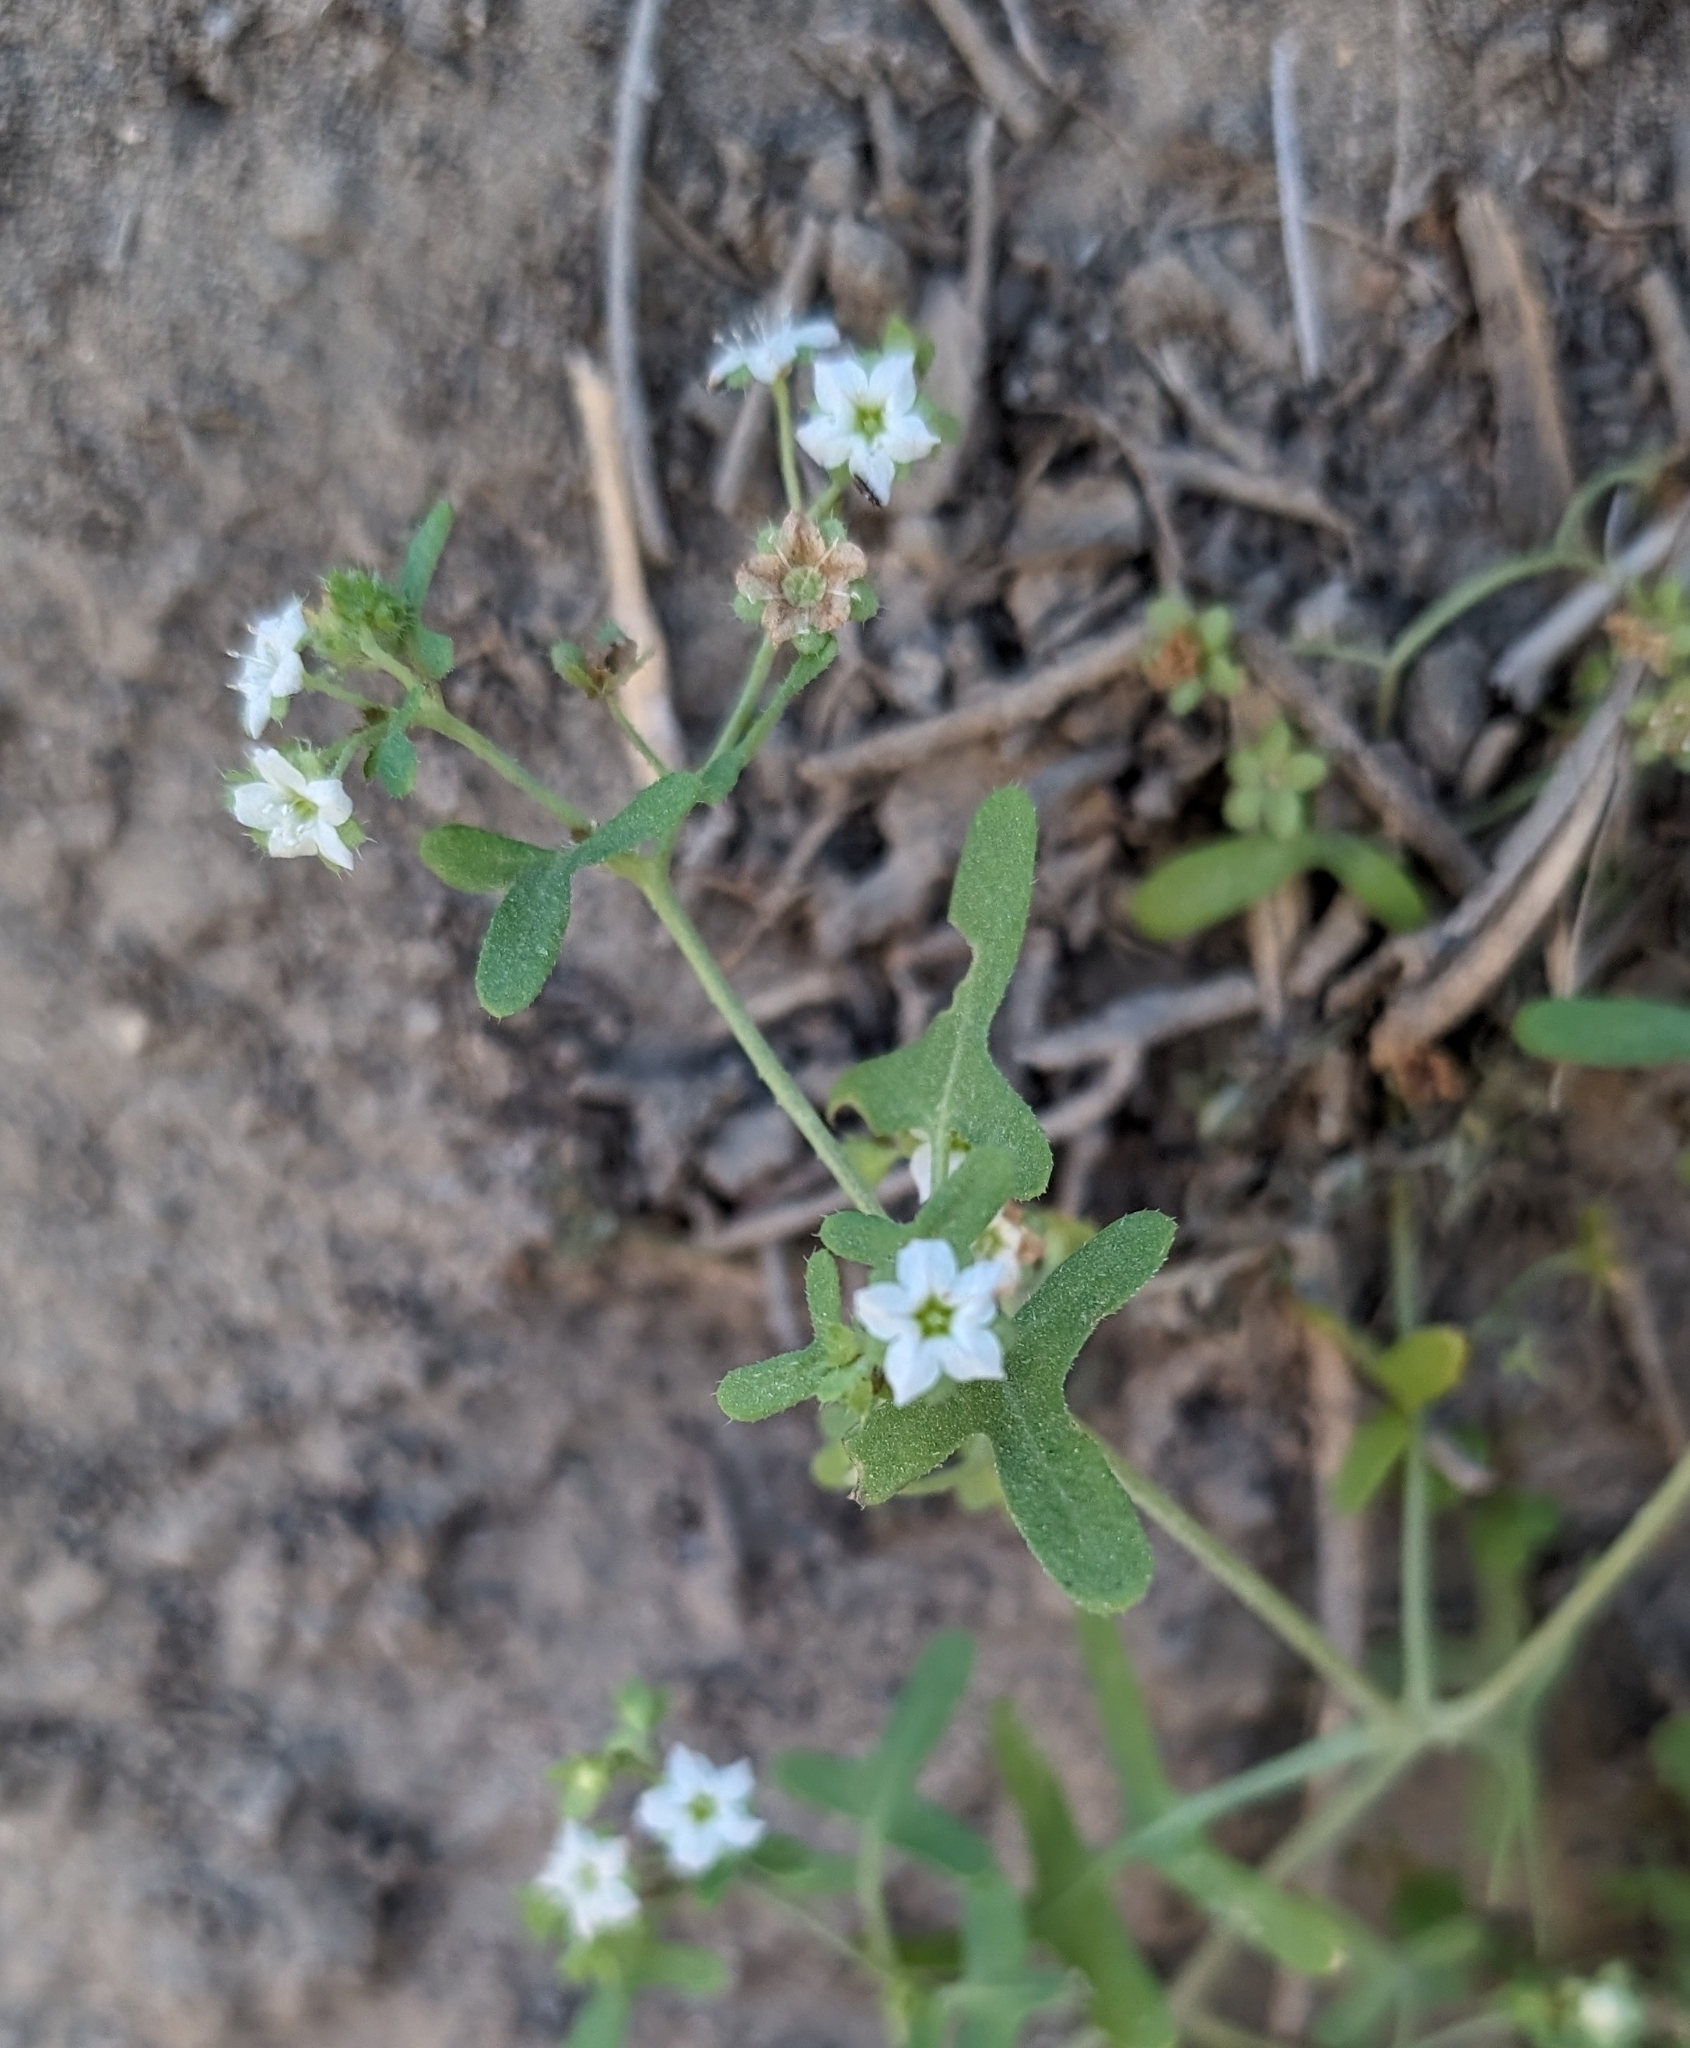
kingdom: Plantae
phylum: Tracheophyta
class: Magnoliopsida
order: Boraginales
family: Hydrophyllaceae
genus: Pholistoma
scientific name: Pholistoma membranaceum
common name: White fiesta-flower
